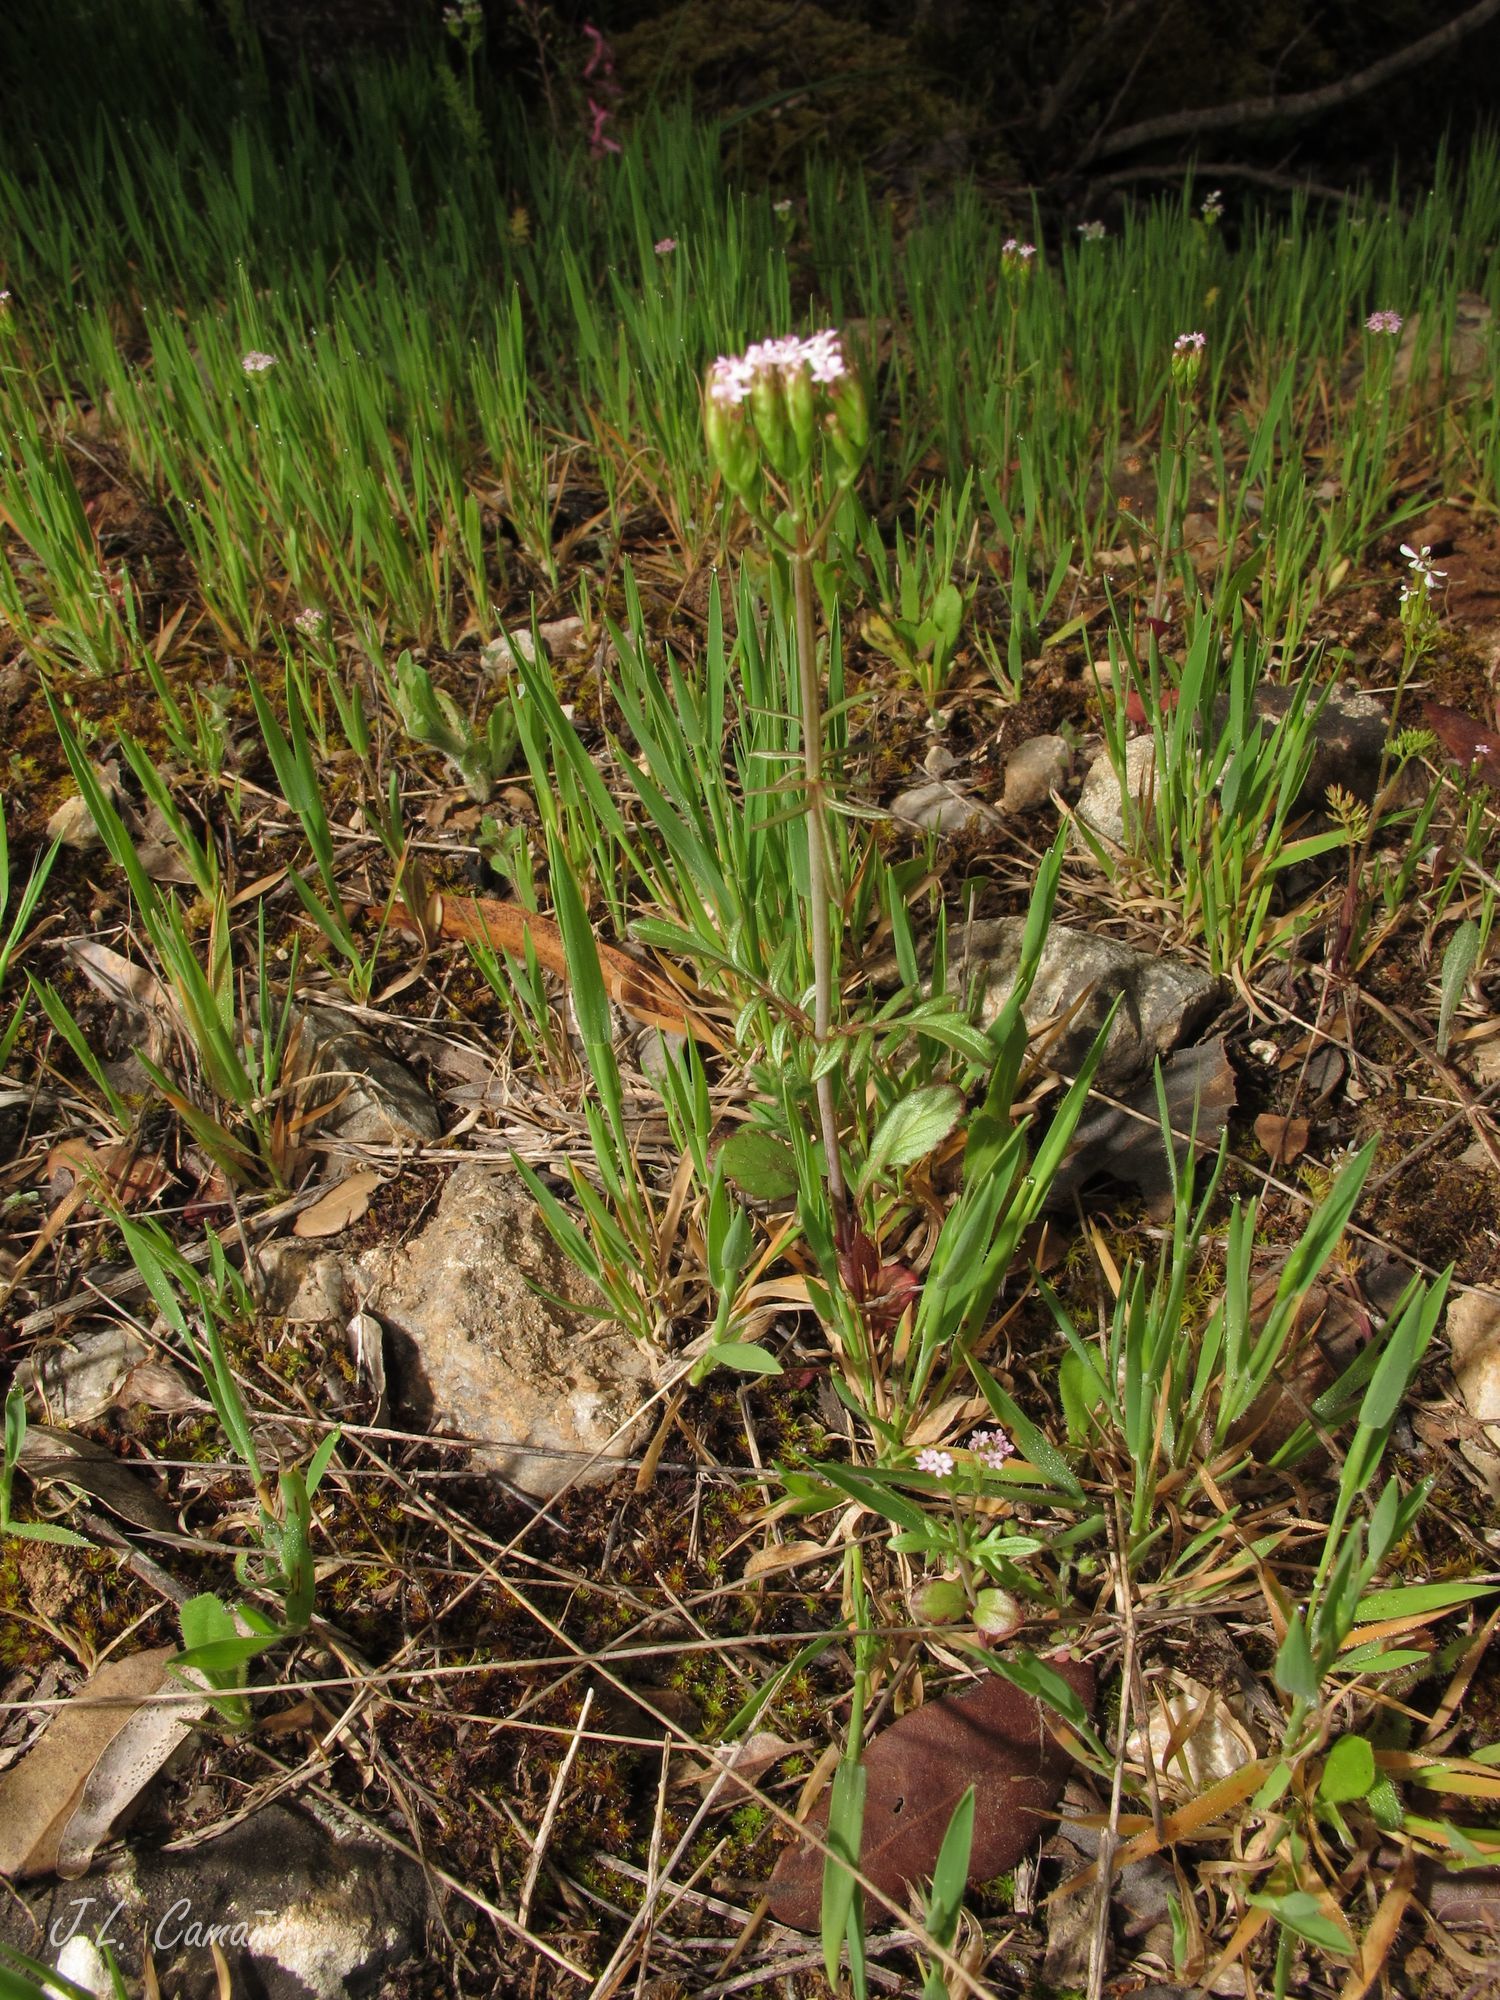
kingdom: Plantae
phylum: Tracheophyta
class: Magnoliopsida
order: Dipsacales
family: Caprifoliaceae
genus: Centranthus
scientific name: Centranthus calcitrapae
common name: Annual valerian
